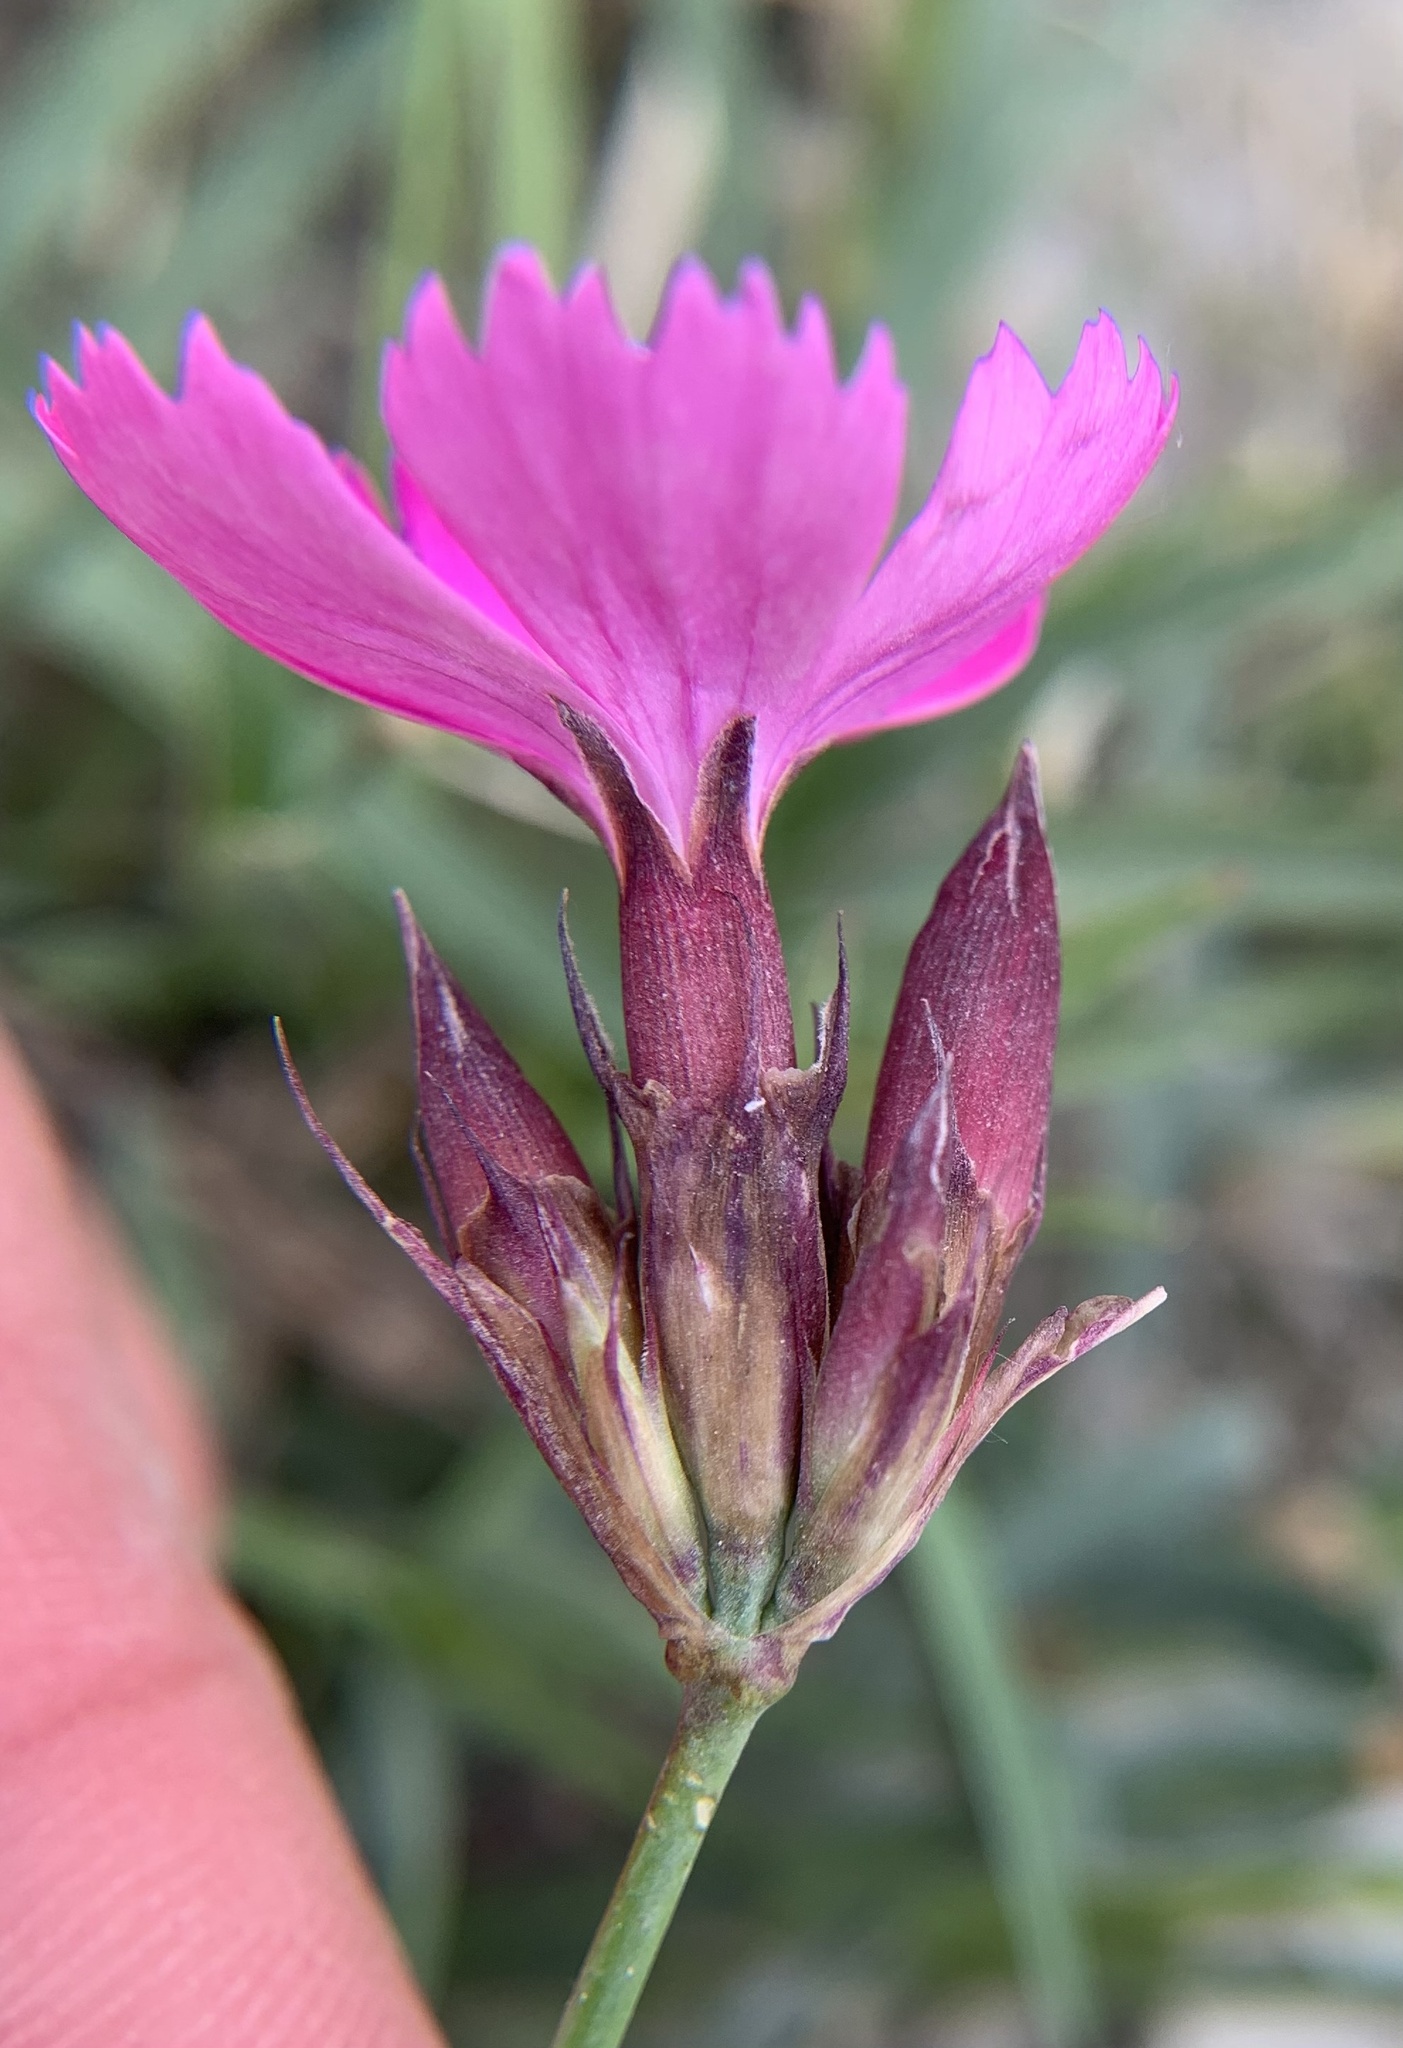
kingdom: Plantae
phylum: Tracheophyta
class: Magnoliopsida
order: Caryophyllales
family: Caryophyllaceae
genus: Dianthus
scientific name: Dianthus carthusianorum
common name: Carthusian pink
